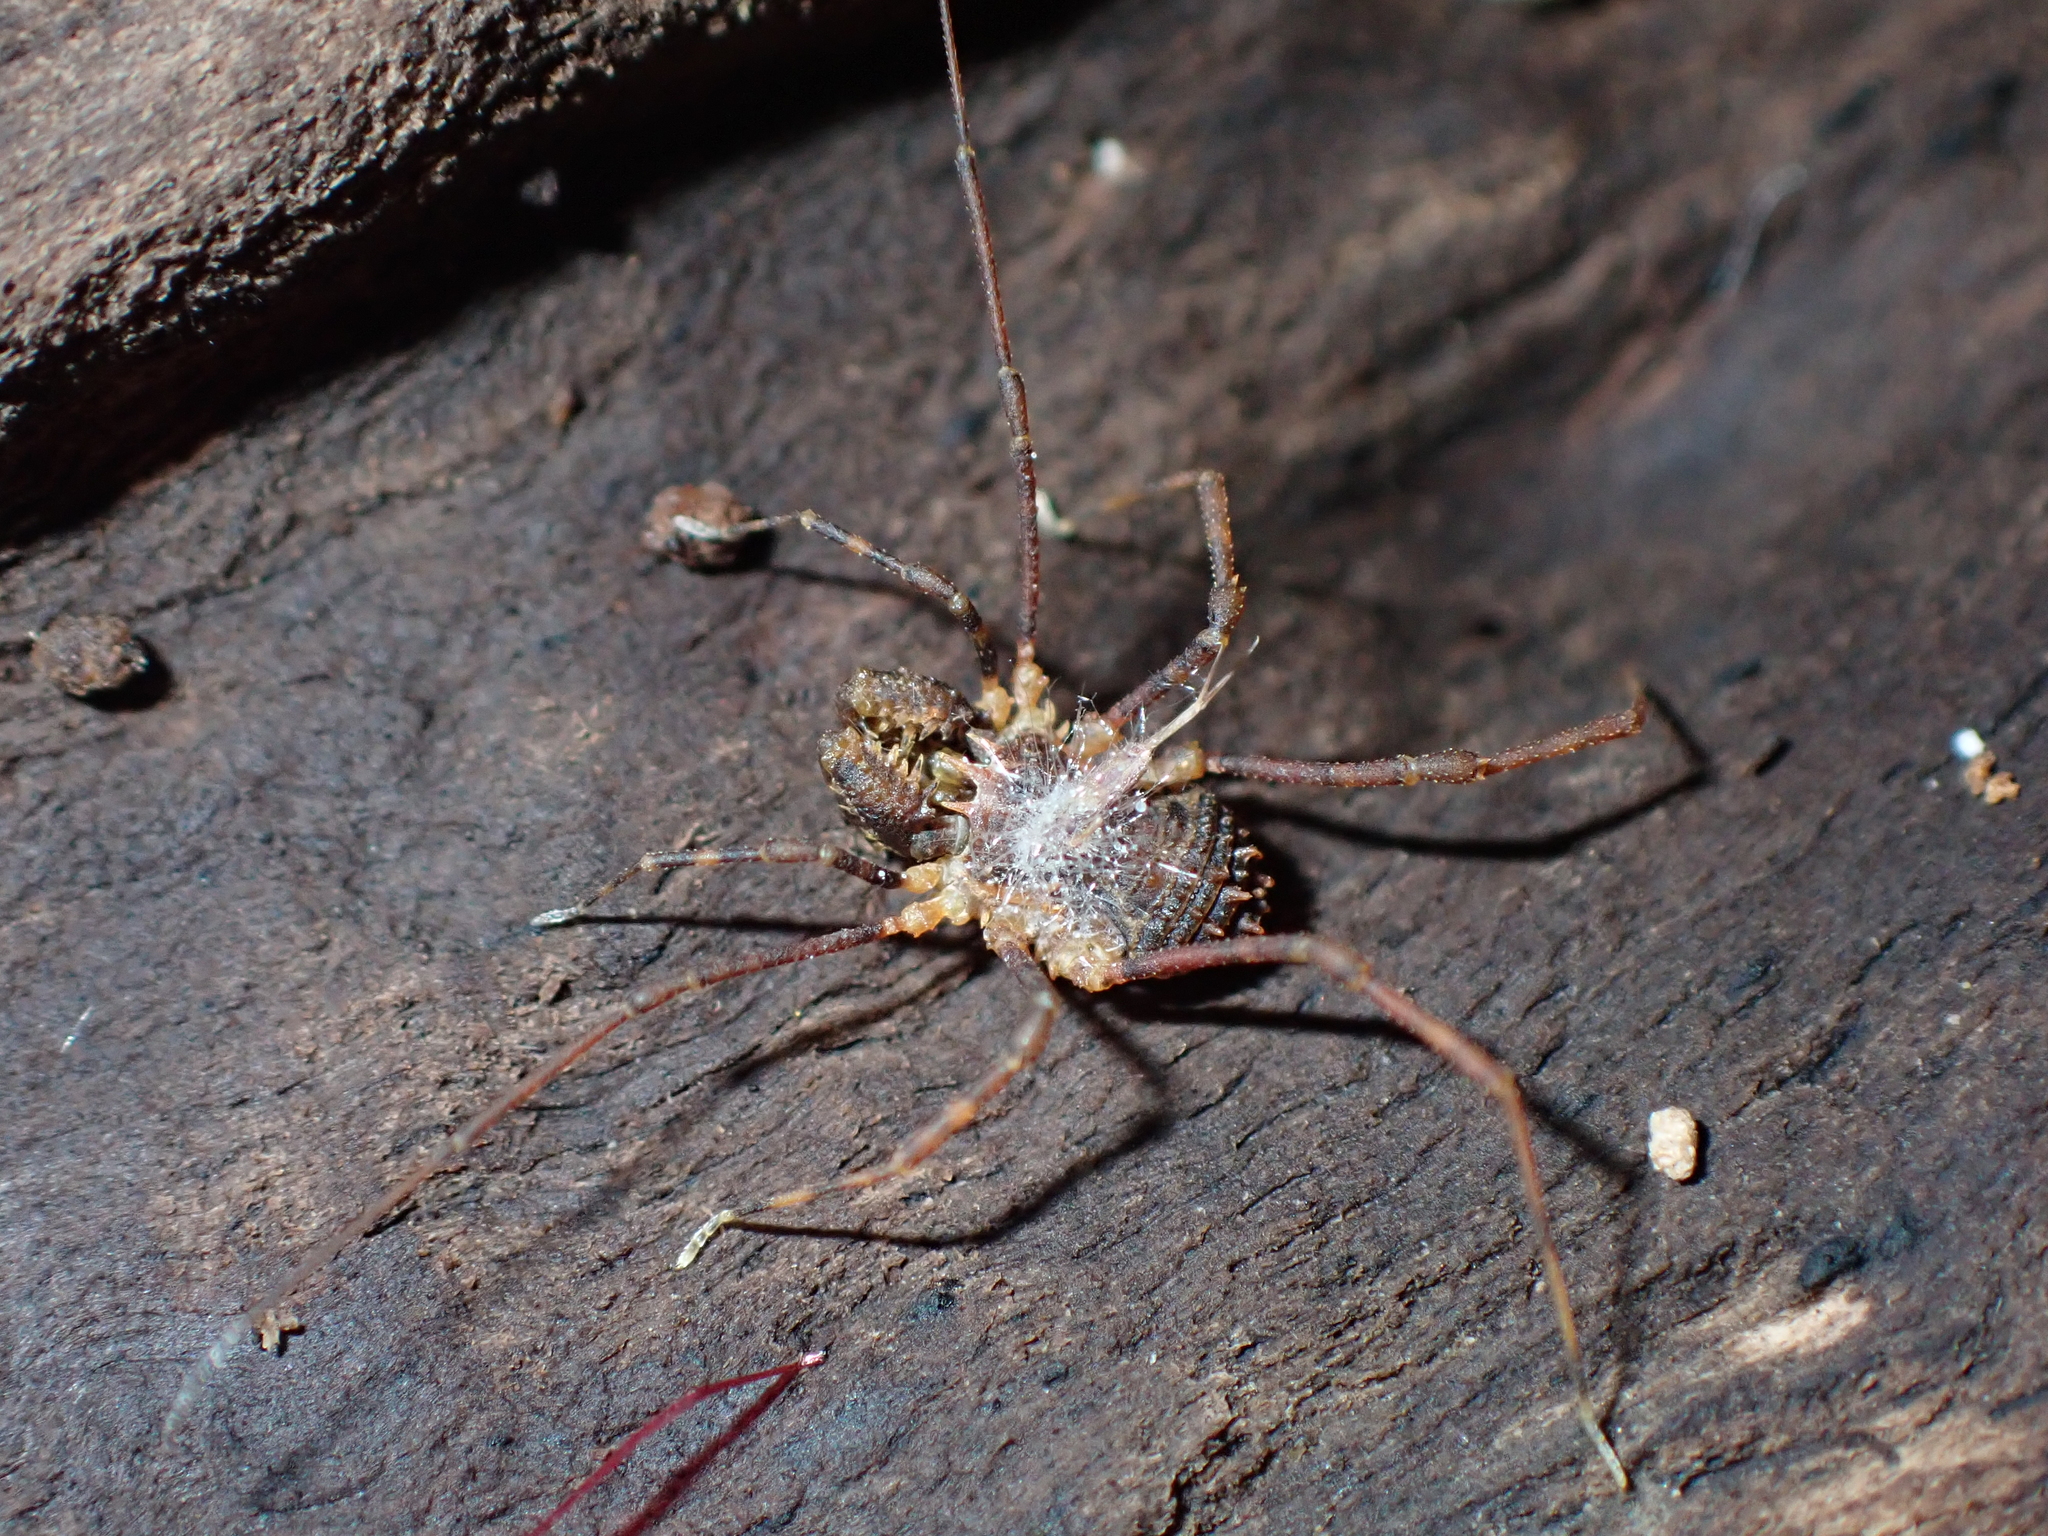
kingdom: Animalia
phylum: Arthropoda
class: Arachnida
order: Opiliones
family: Triaenonychidae
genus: Algidia
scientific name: Algidia chiltoni
